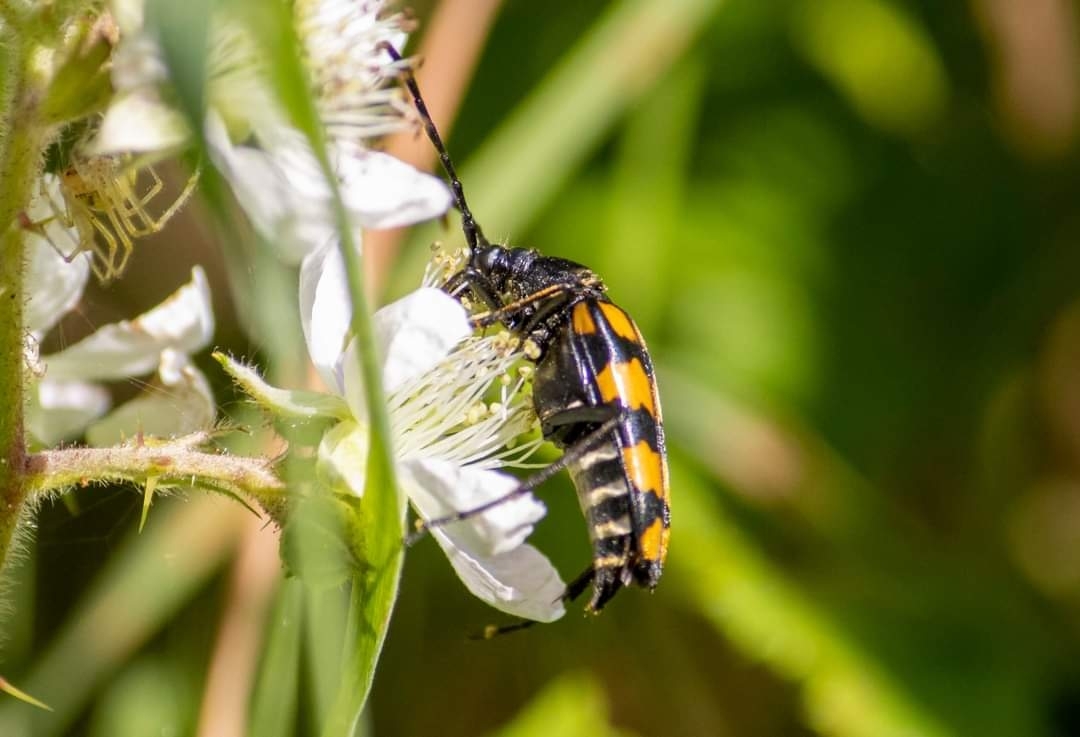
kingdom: Animalia
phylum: Arthropoda
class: Insecta
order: Coleoptera
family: Cerambycidae
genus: Leptura
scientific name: Leptura quadrifasciata
